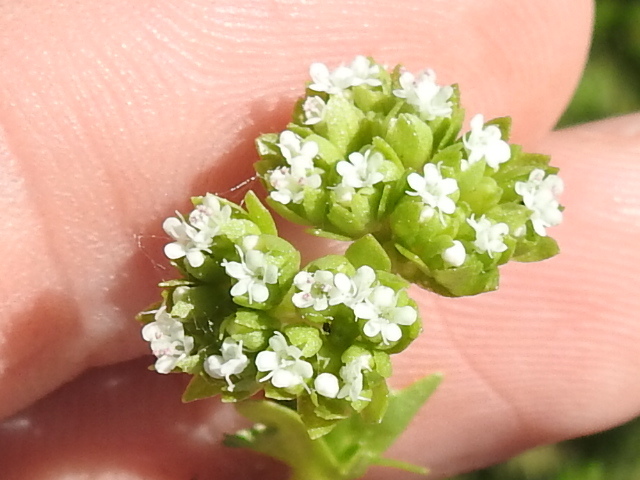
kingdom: Plantae
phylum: Tracheophyta
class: Magnoliopsida
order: Dipsacales
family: Caprifoliaceae
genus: Valerianella
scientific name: Valerianella radiata
